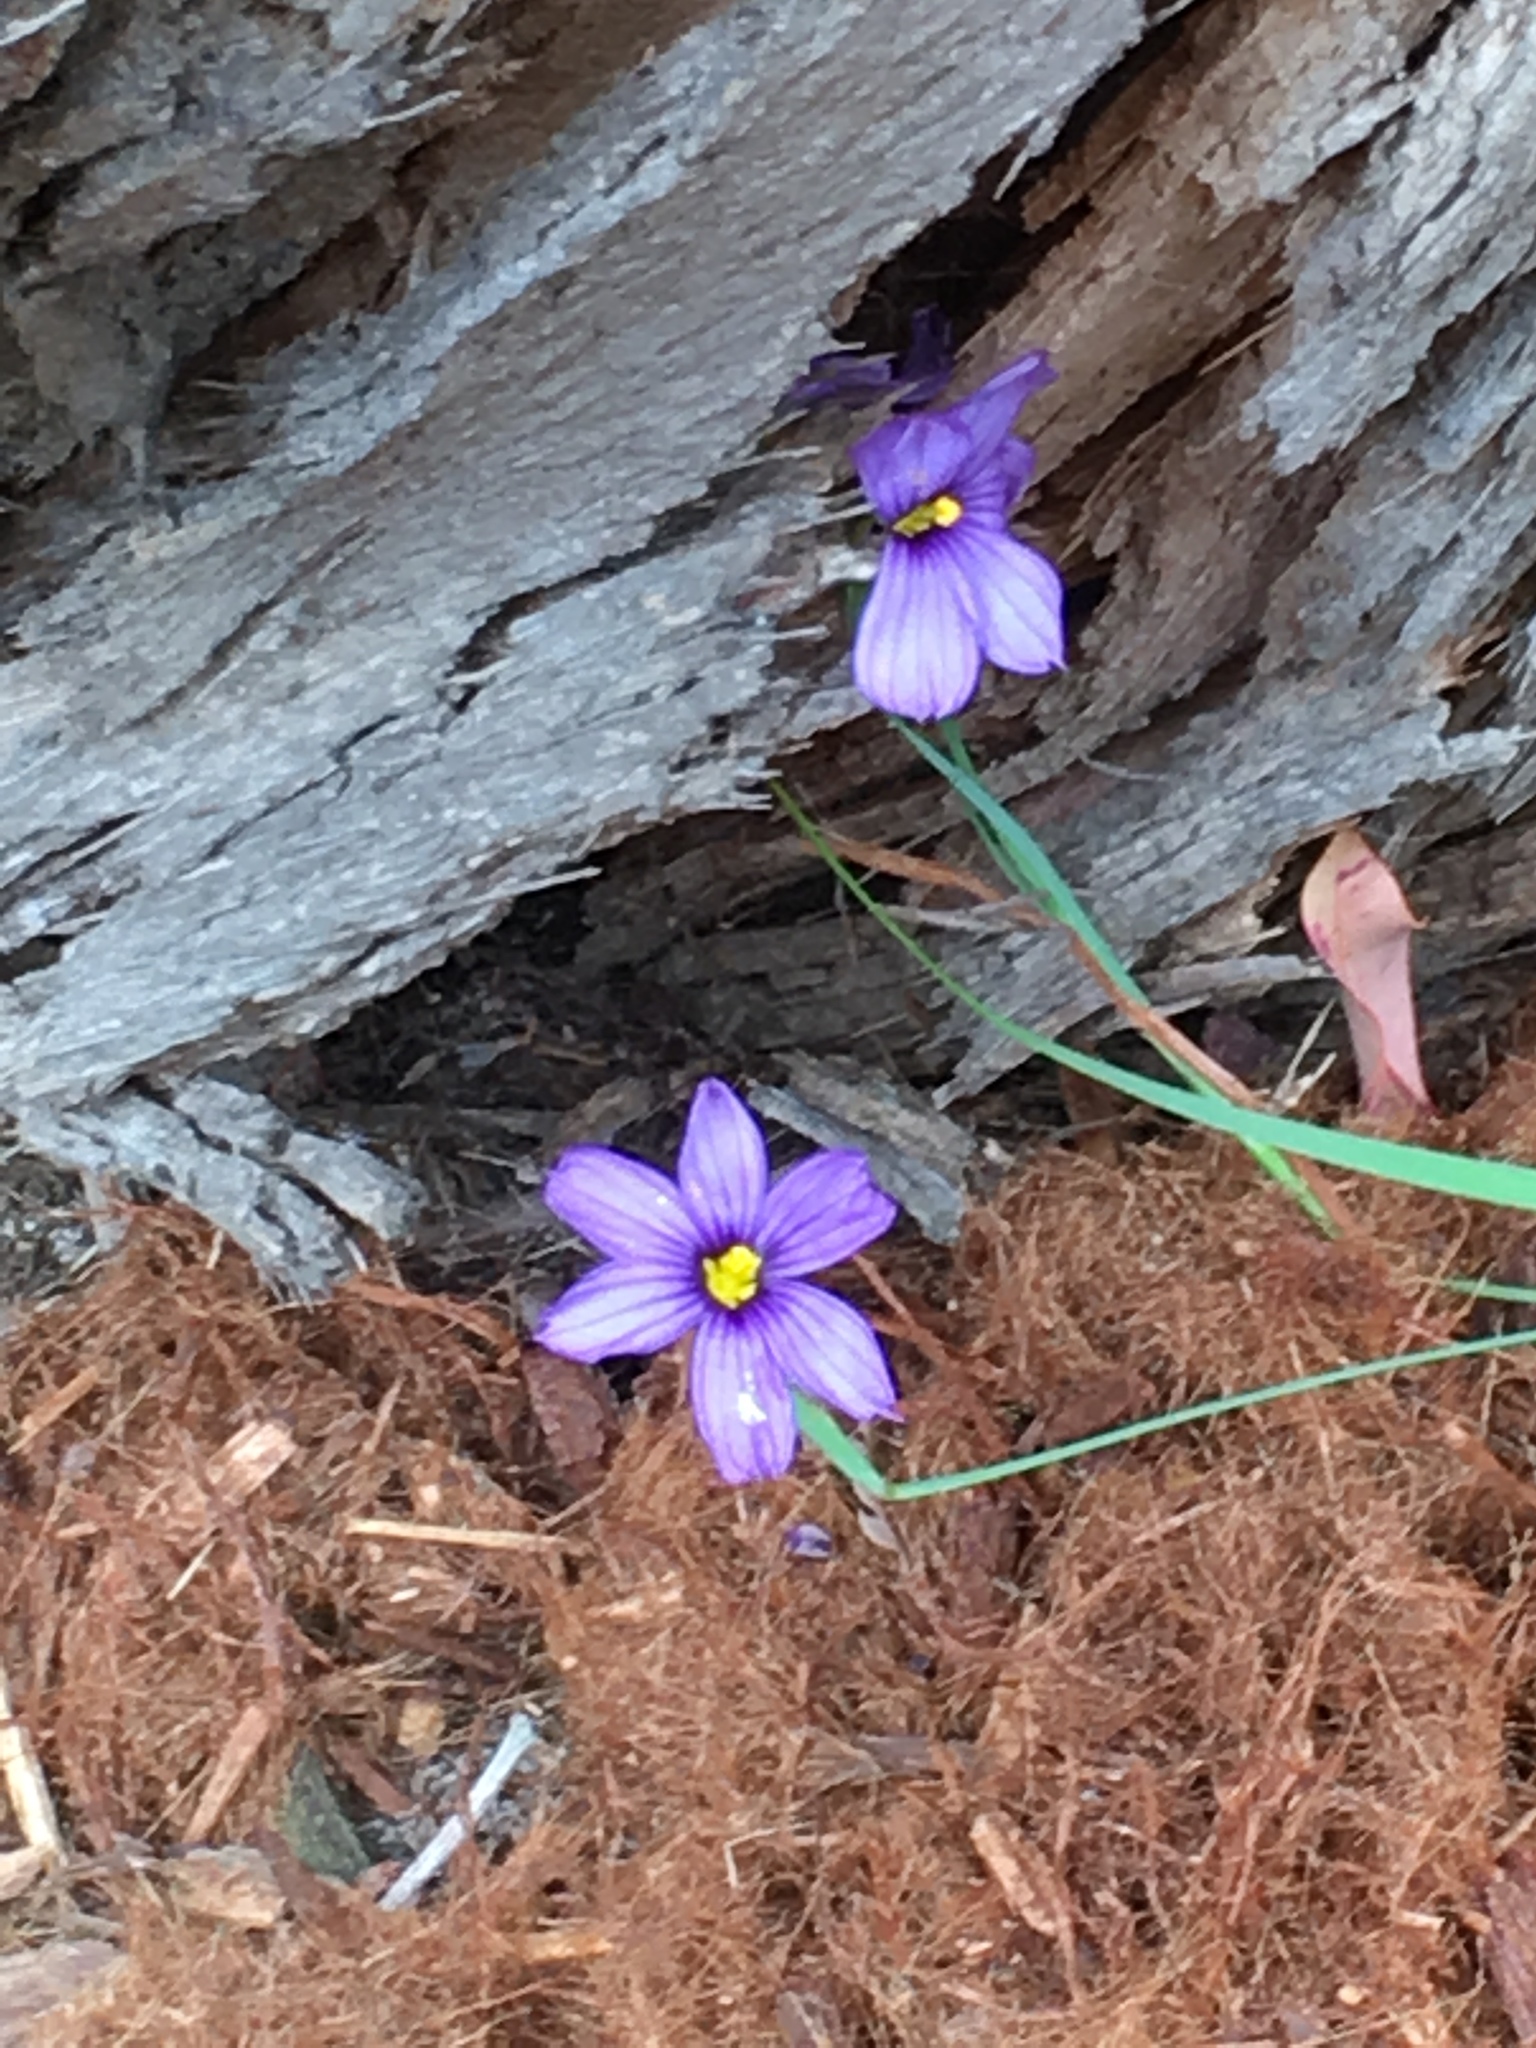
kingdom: Plantae
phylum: Tracheophyta
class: Liliopsida
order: Asparagales
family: Iridaceae
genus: Sisyrinchium
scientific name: Sisyrinchium bellum
